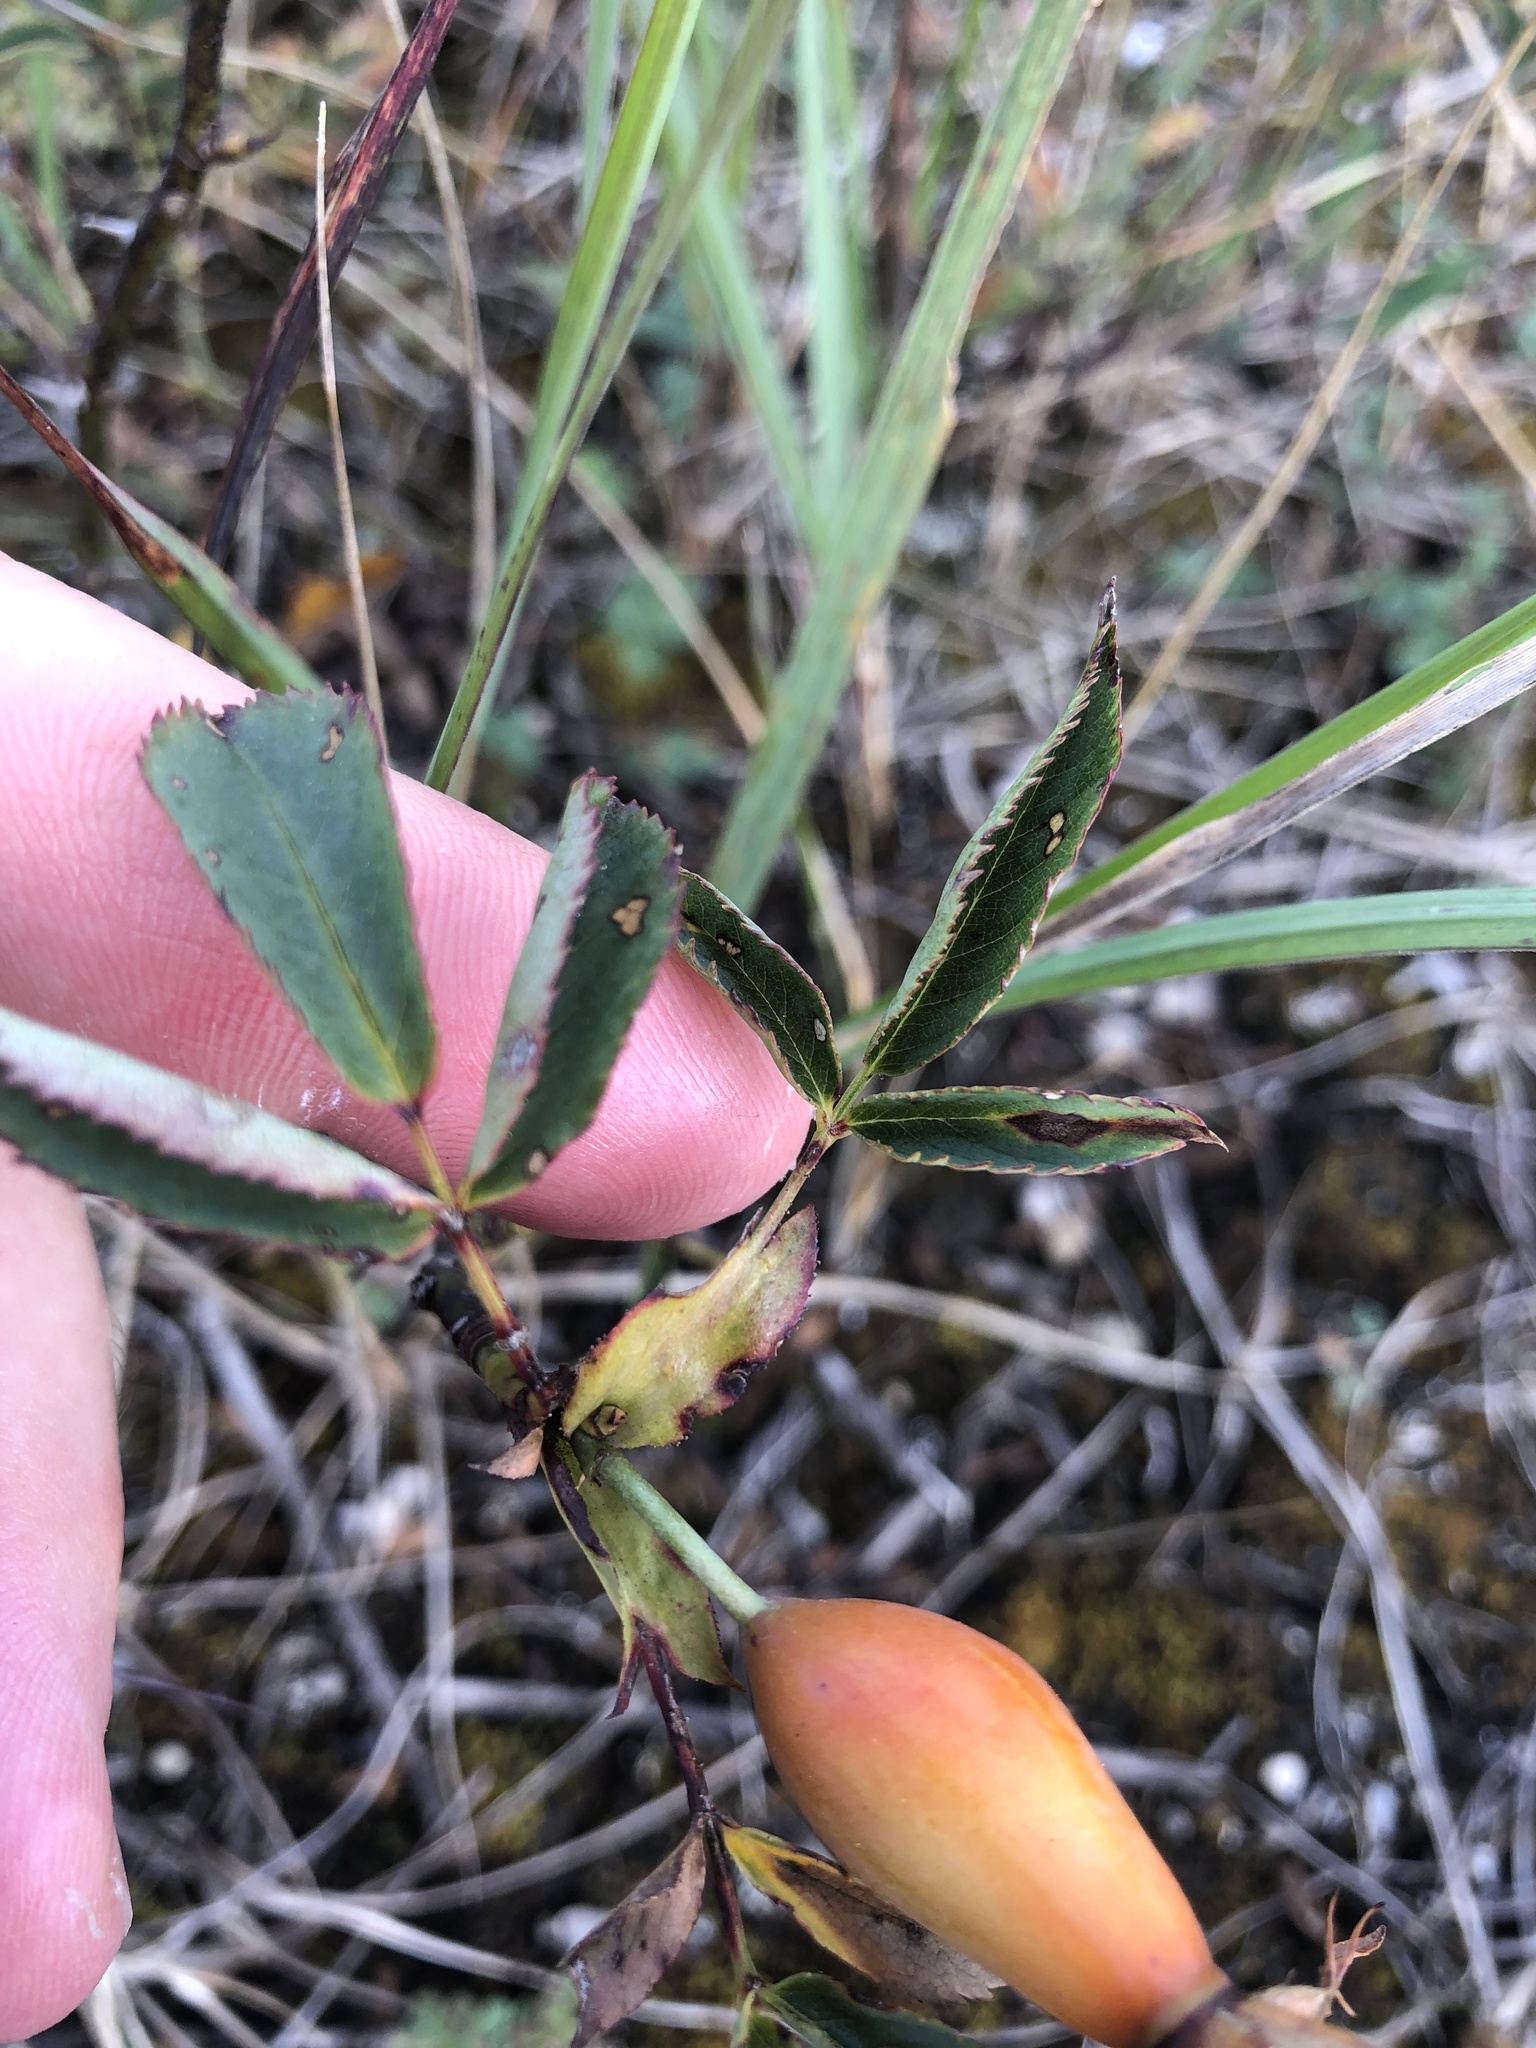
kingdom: Plantae
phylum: Tracheophyta
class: Magnoliopsida
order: Rosales
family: Rosaceae
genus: Rosa
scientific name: Rosa dumalis
